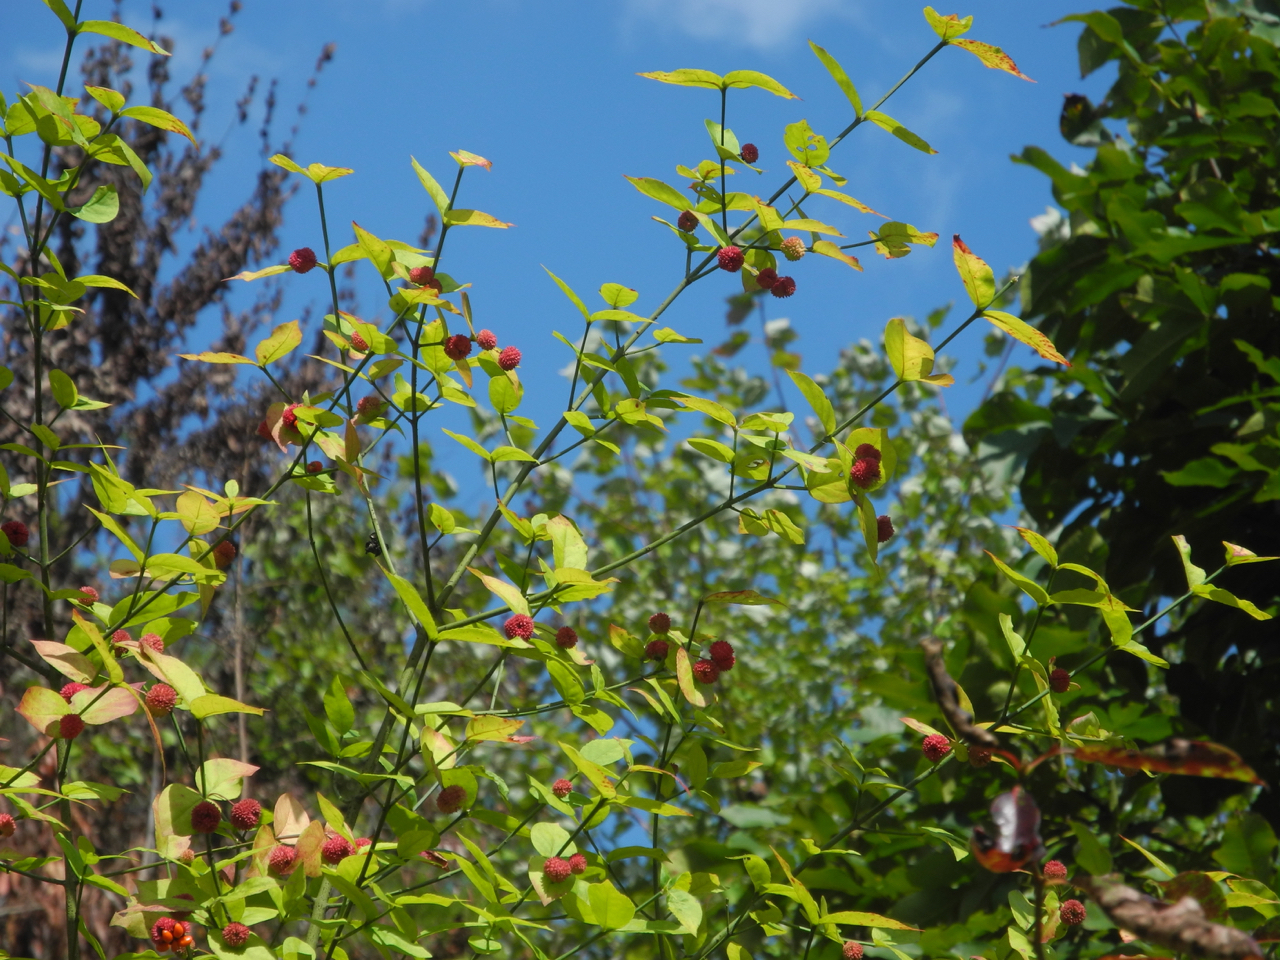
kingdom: Plantae
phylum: Tracheophyta
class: Magnoliopsida
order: Celastrales
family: Celastraceae
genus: Euonymus
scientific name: Euonymus americanus
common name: Bursting-heart
